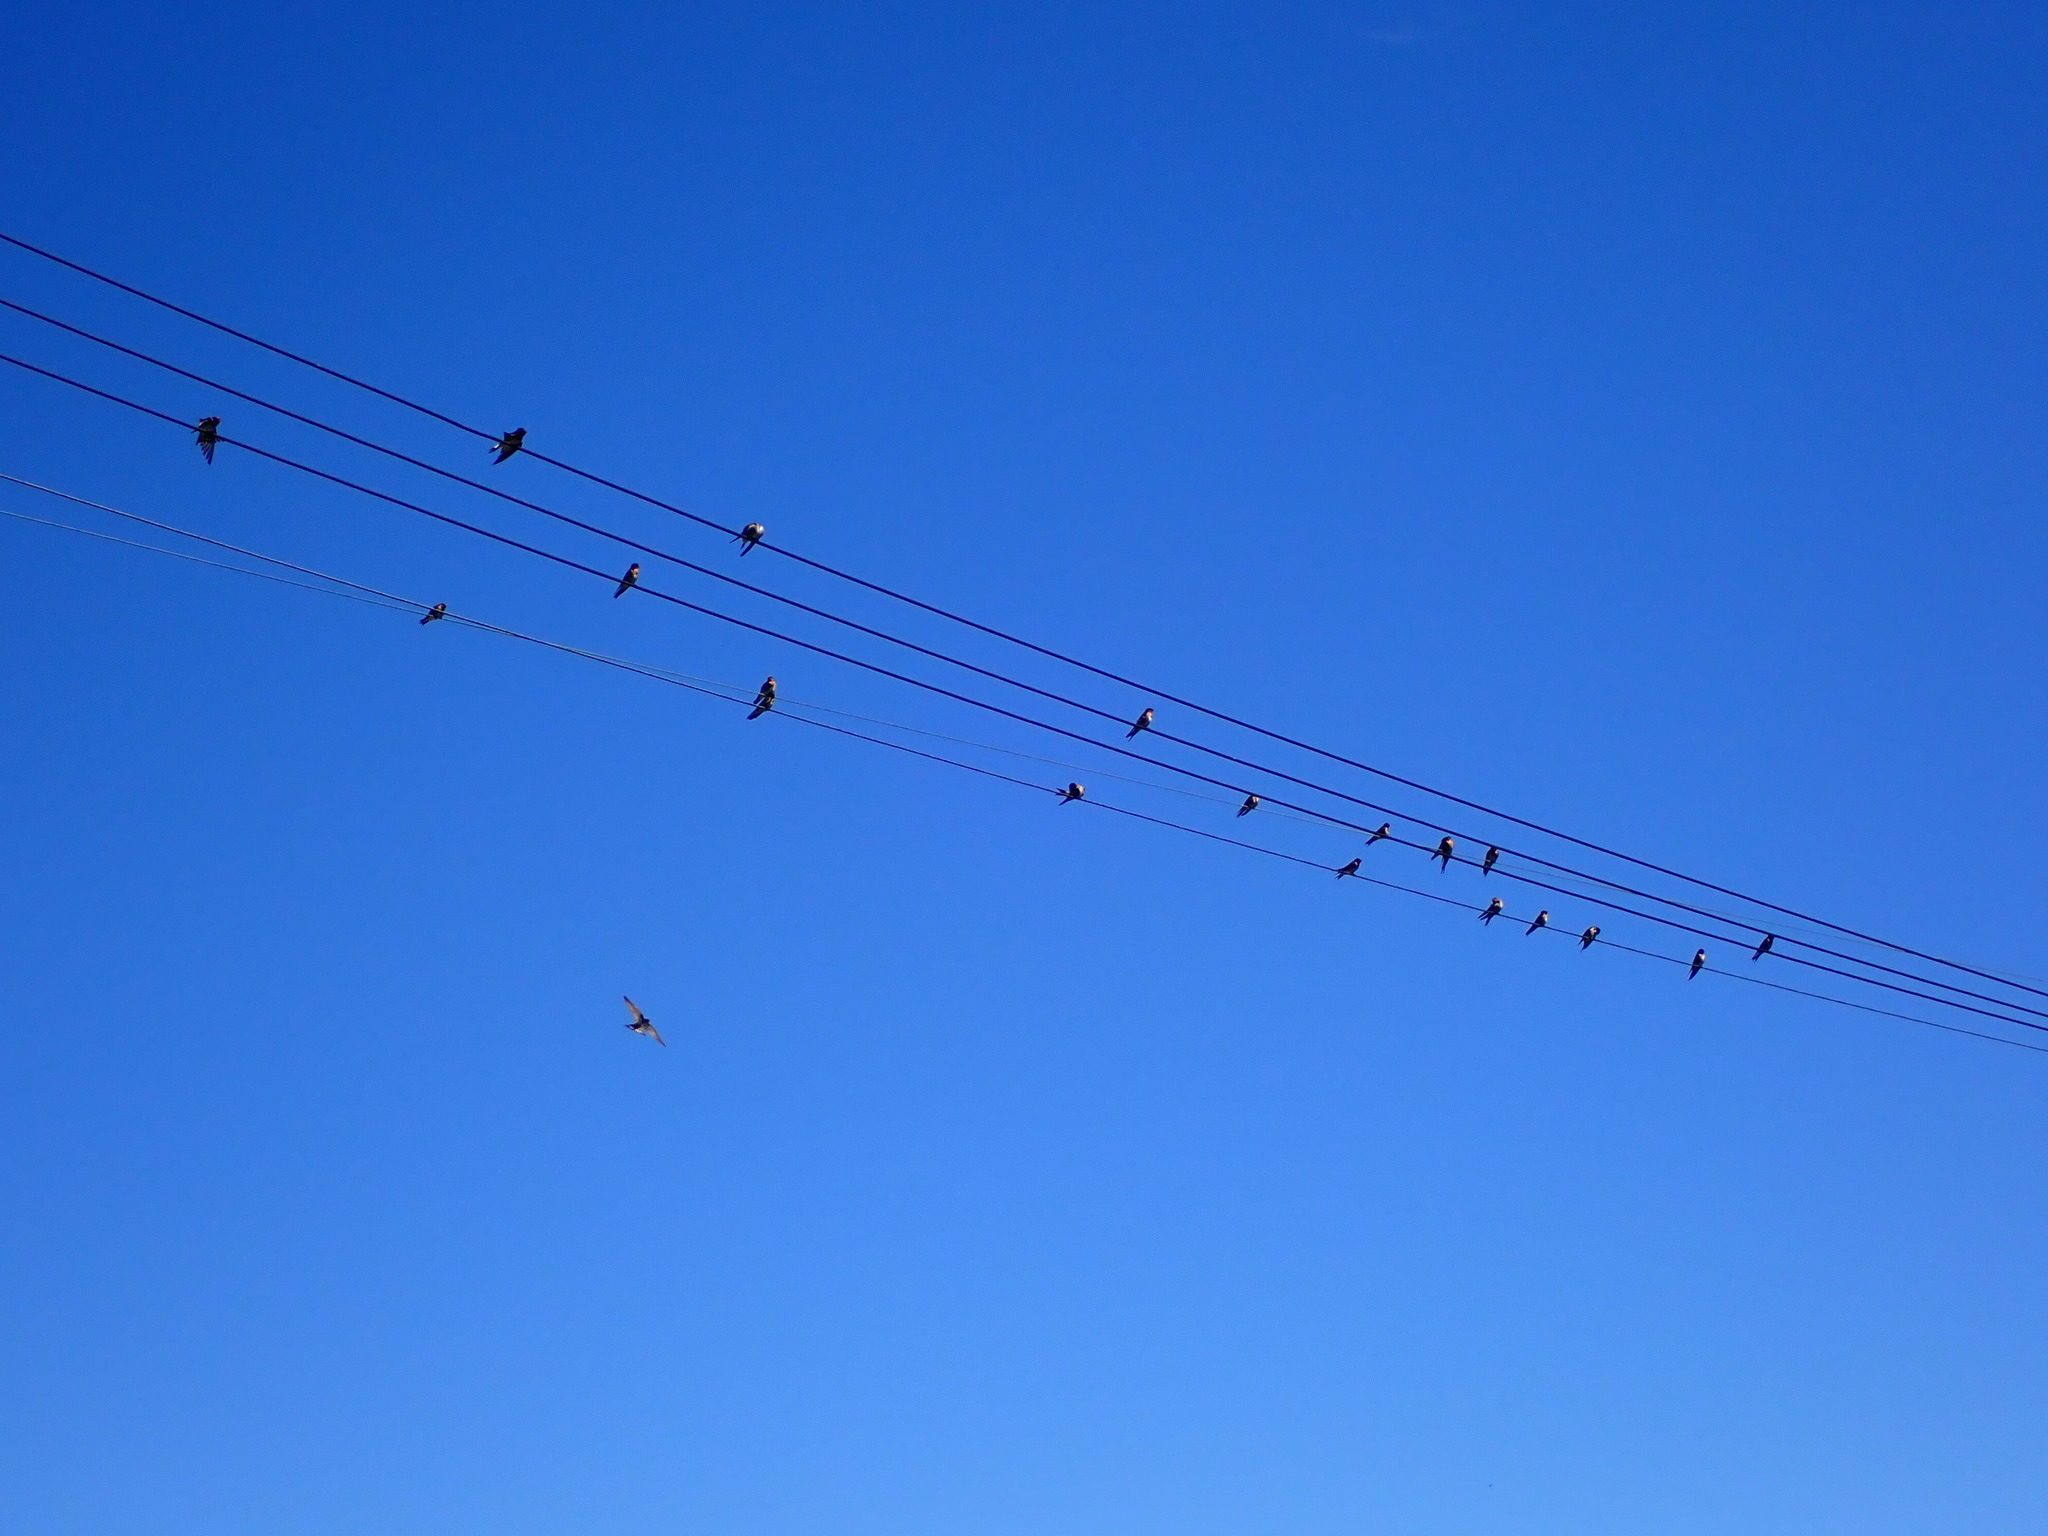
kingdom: Animalia
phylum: Chordata
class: Aves
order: Passeriformes
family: Hirundinidae
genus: Hirundo
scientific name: Hirundo neoxena
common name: Welcome swallow
